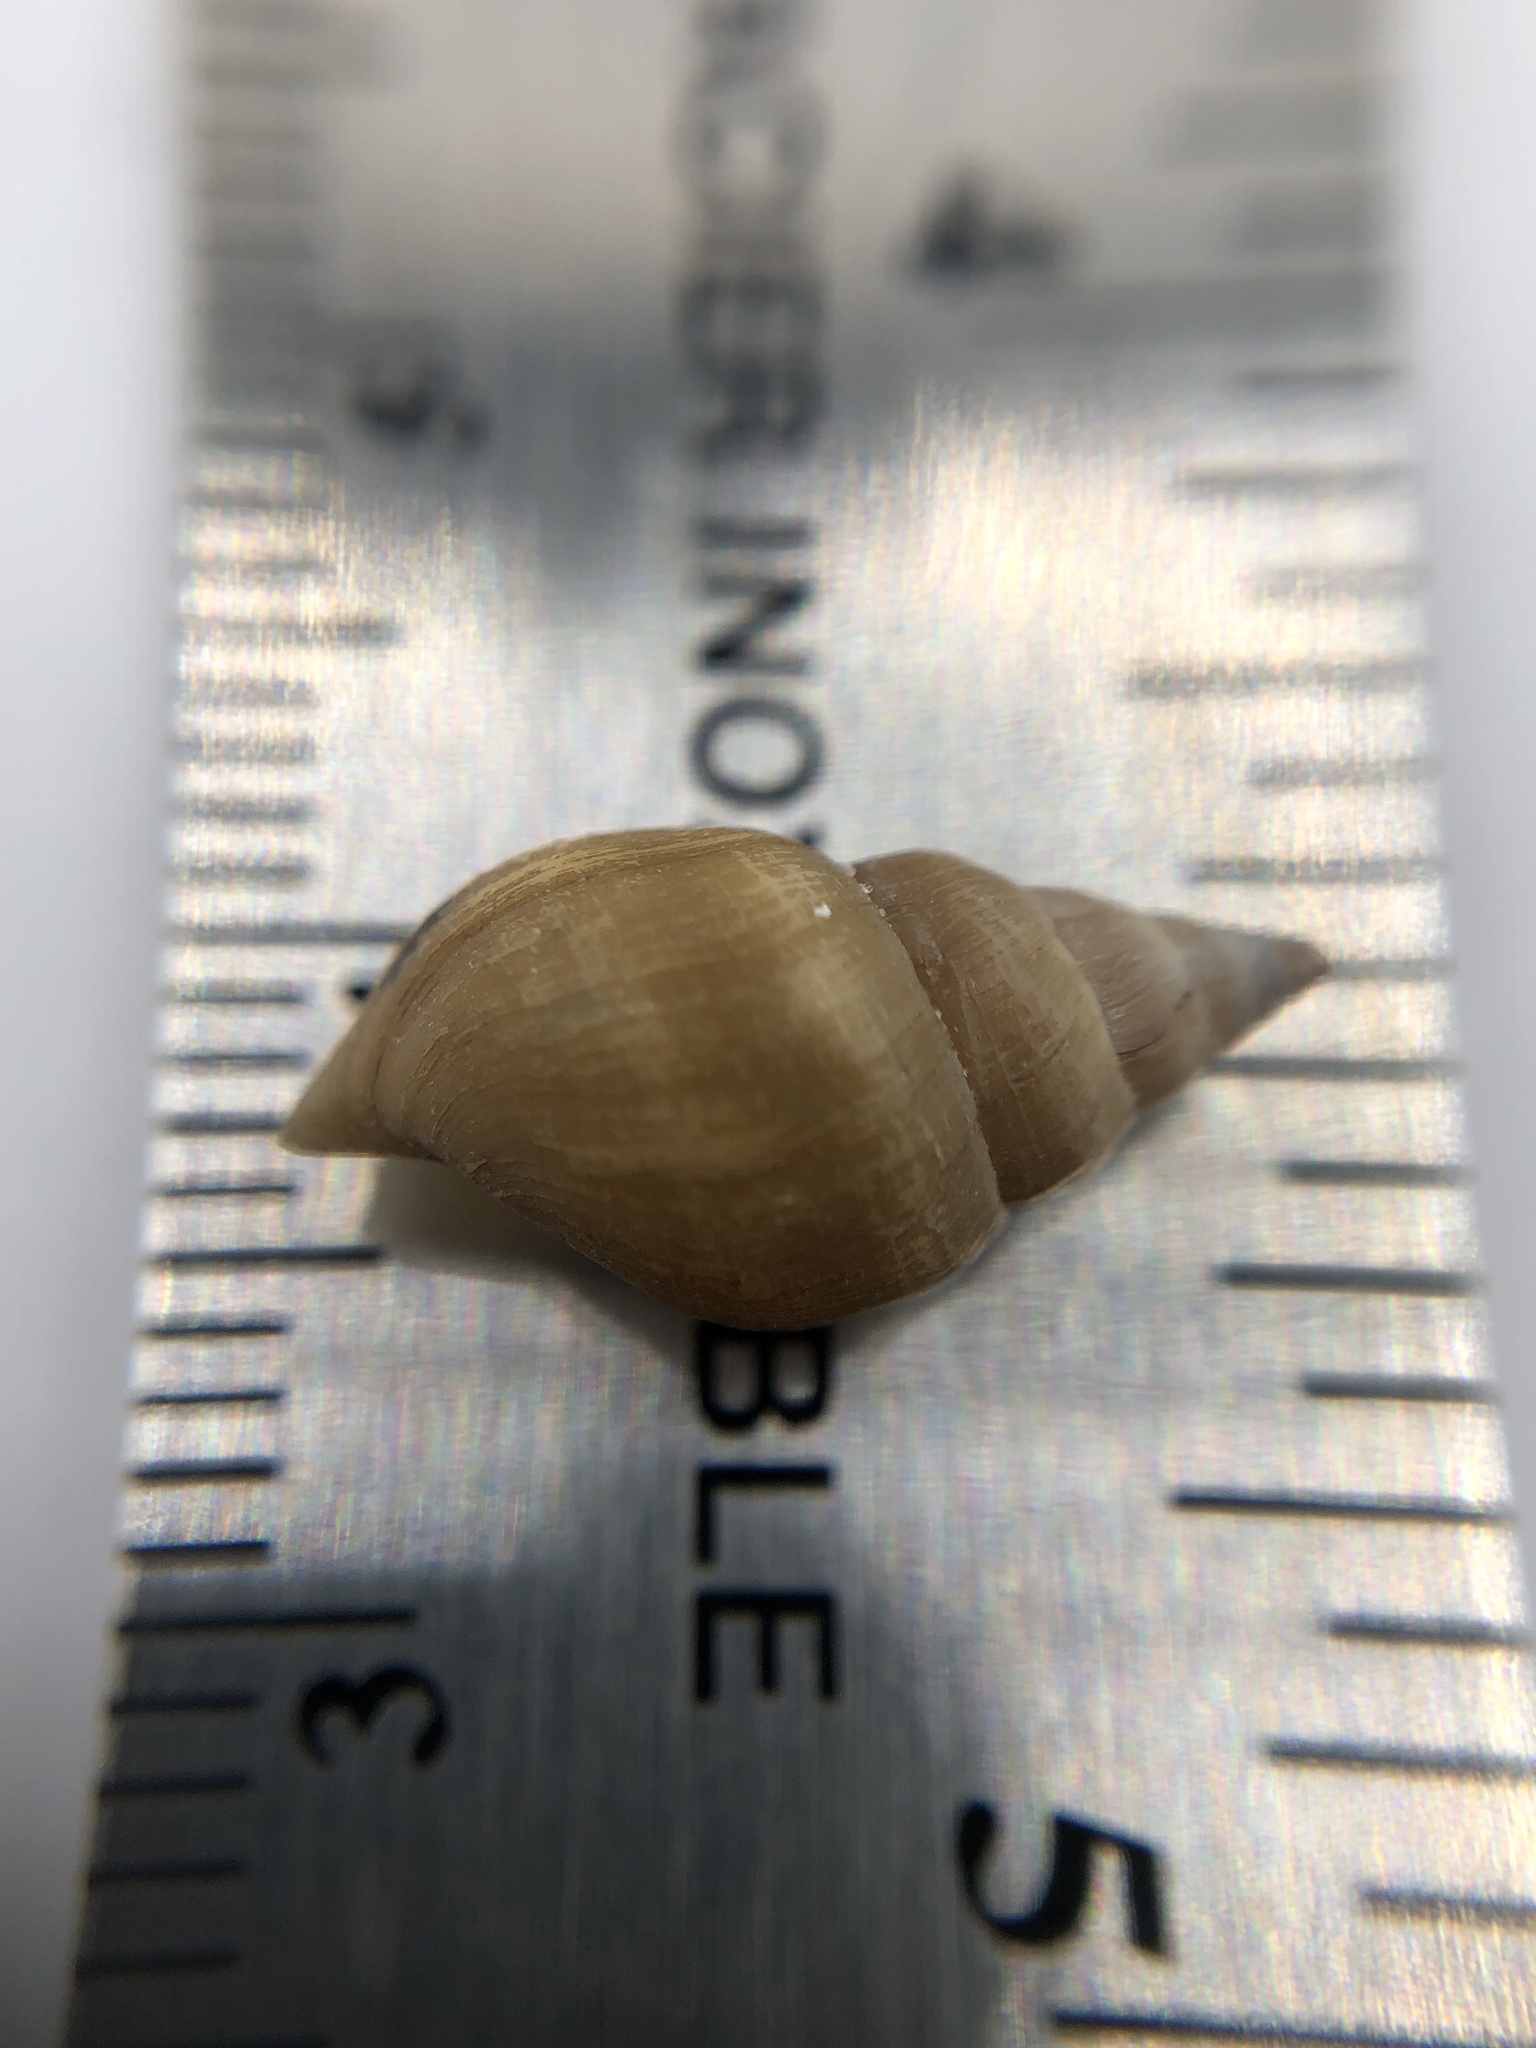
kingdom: Animalia
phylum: Mollusca
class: Gastropoda
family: Lymnaeidae
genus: Ladislavella
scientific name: Ladislavella elodes
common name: Marsh pondsnail
